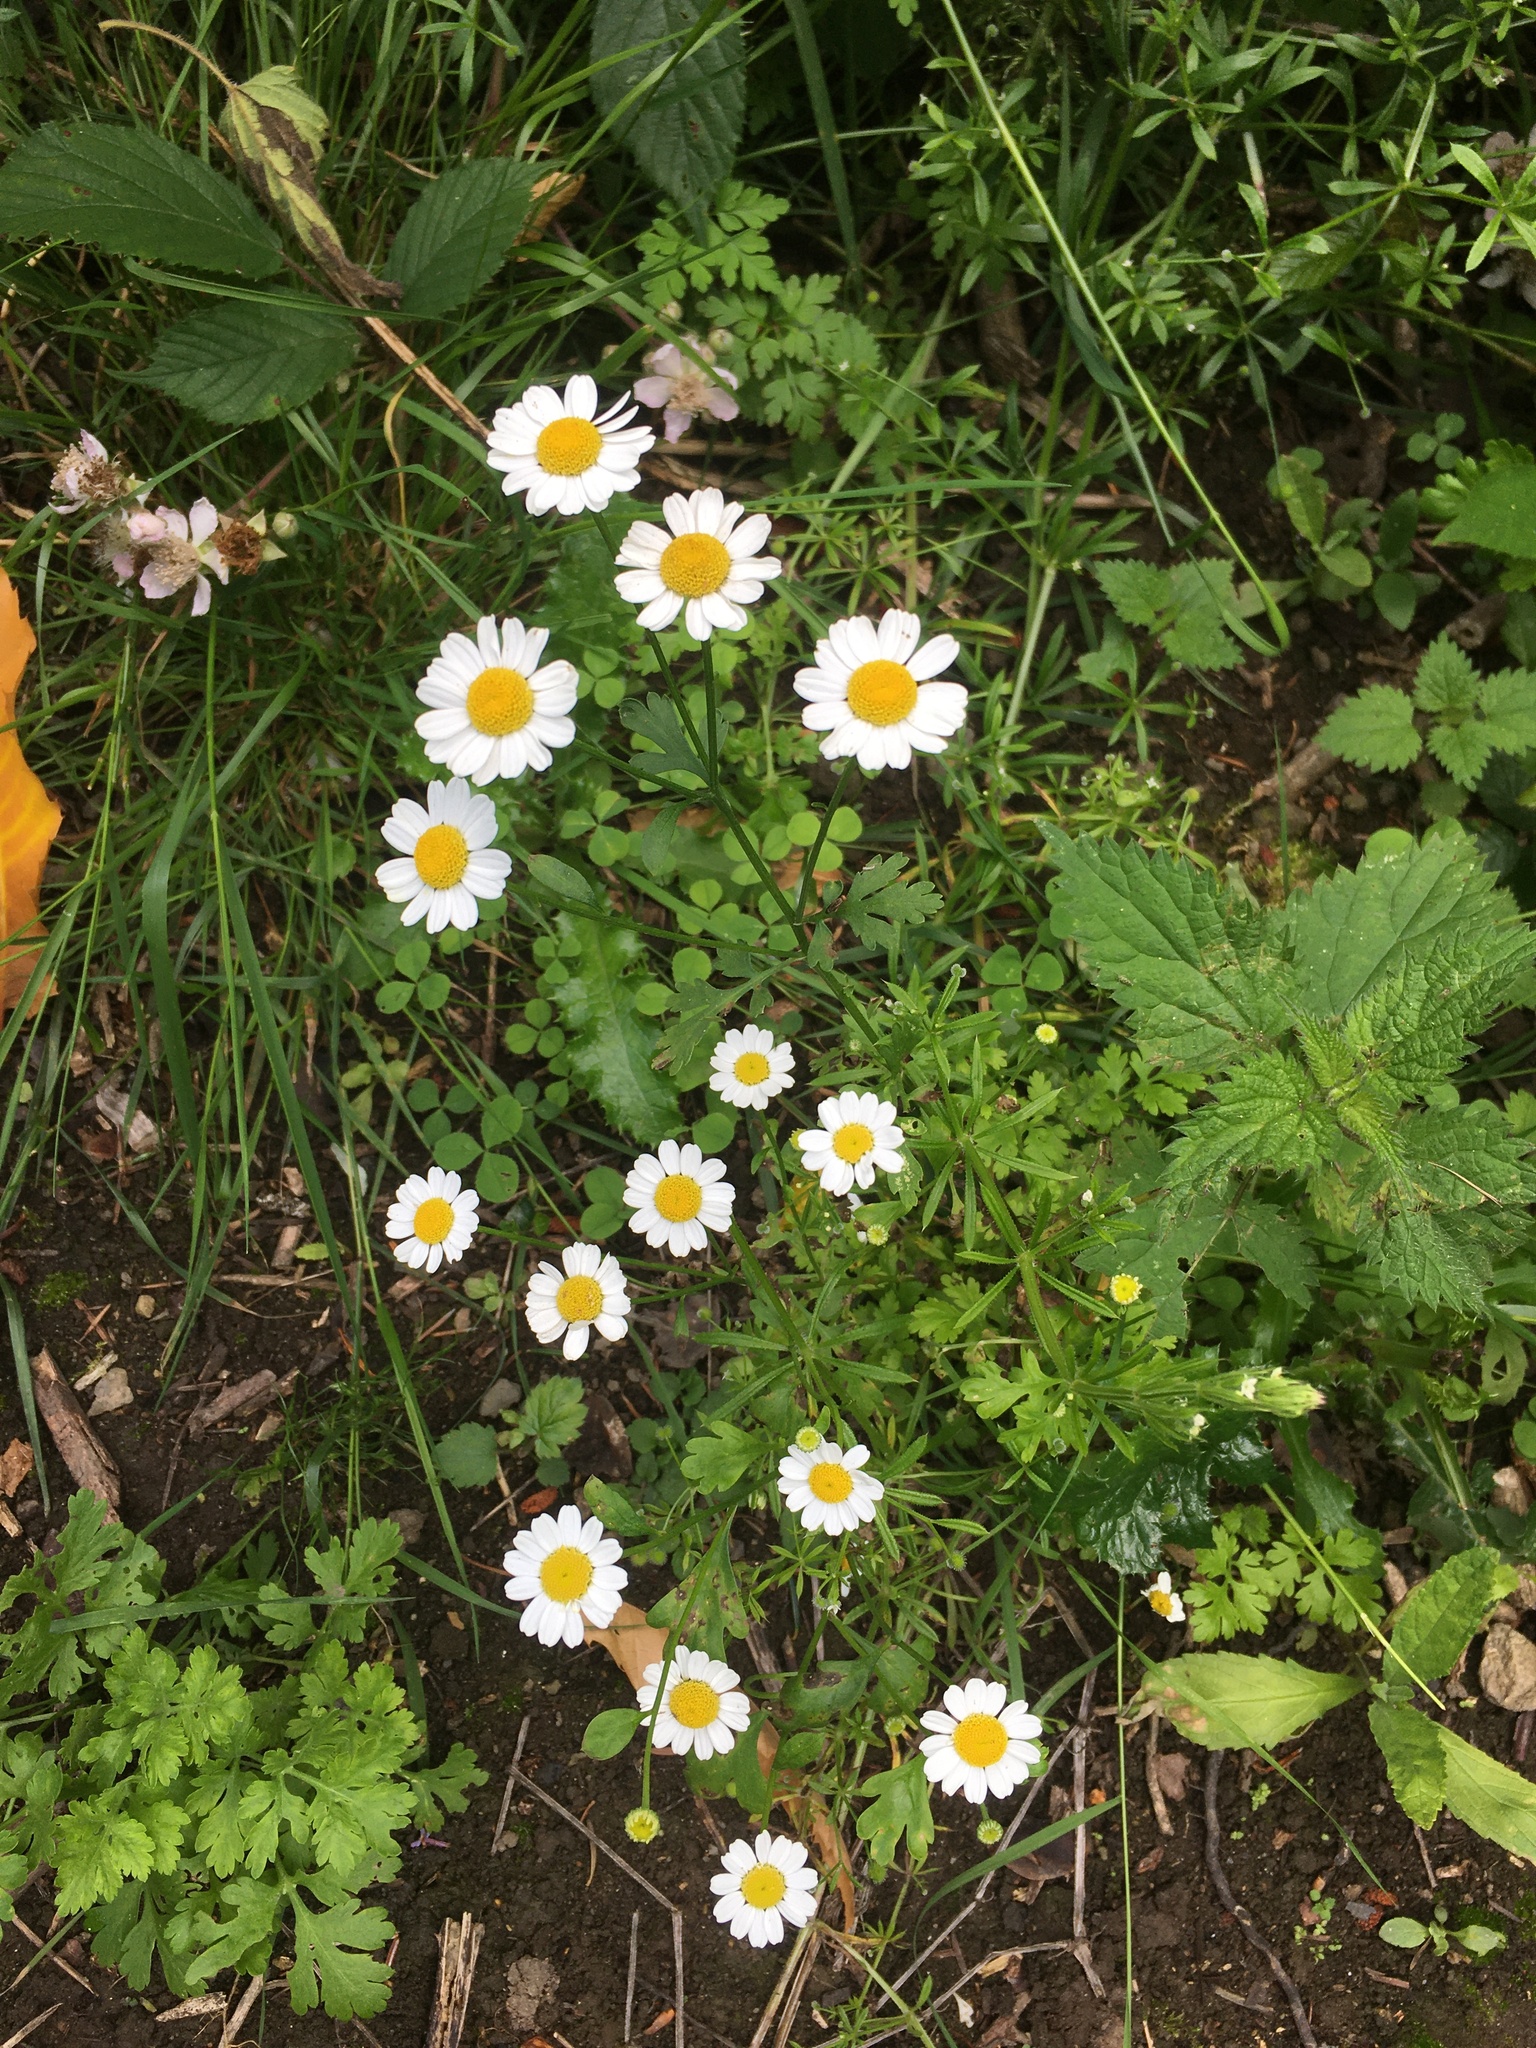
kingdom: Plantae
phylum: Tracheophyta
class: Magnoliopsida
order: Asterales
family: Asteraceae
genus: Tanacetum
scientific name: Tanacetum parthenium
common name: Feverfew
